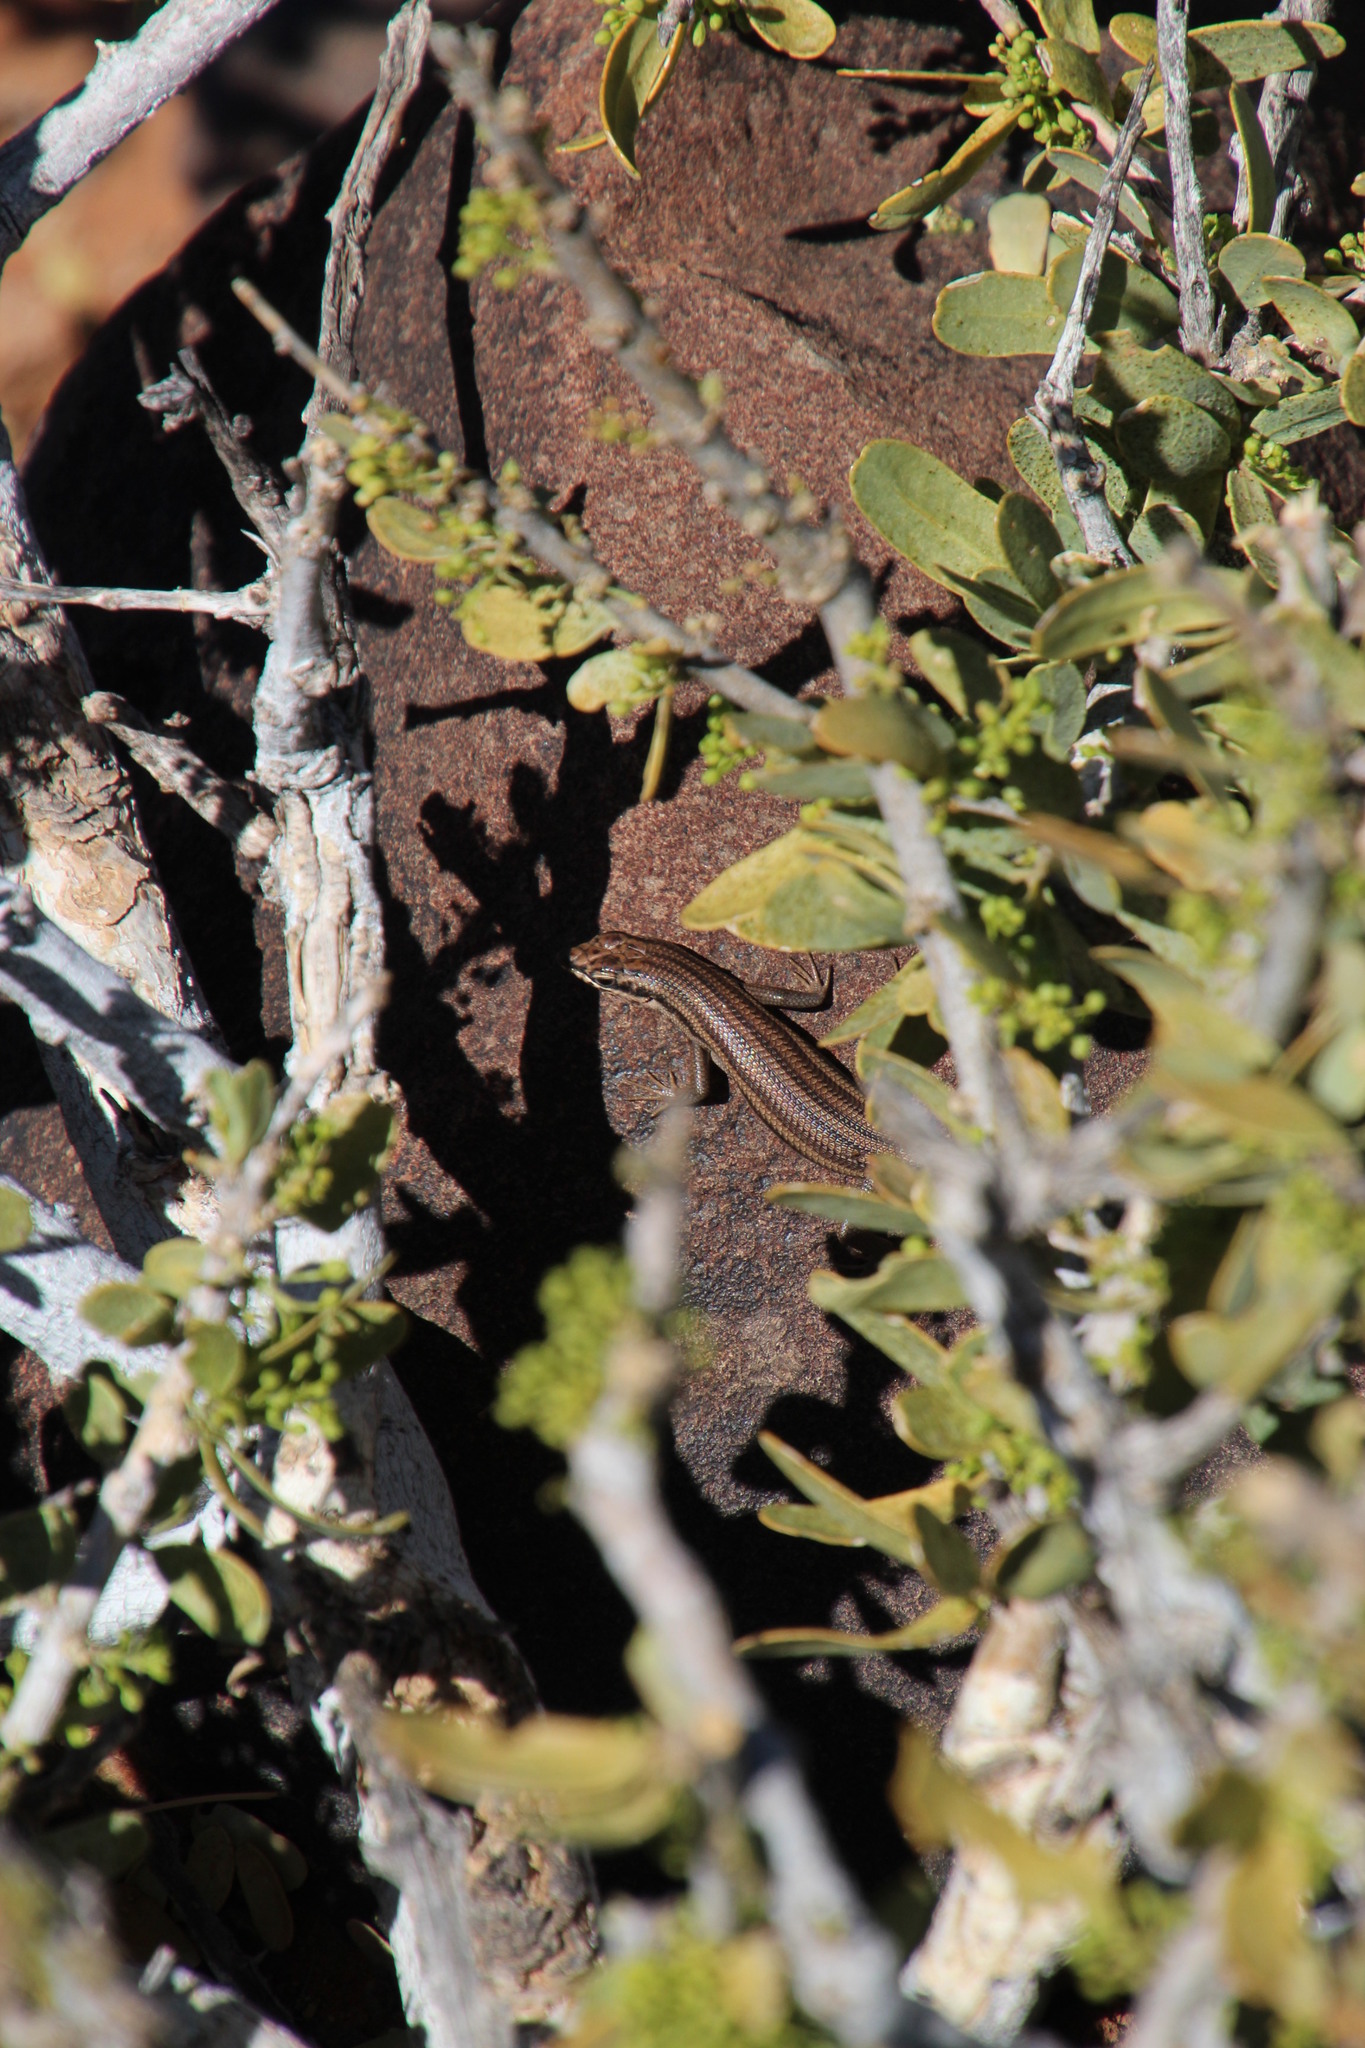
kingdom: Animalia
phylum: Chordata
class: Squamata
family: Scincidae
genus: Trachylepis
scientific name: Trachylepis sulcata
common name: Western rock skink
